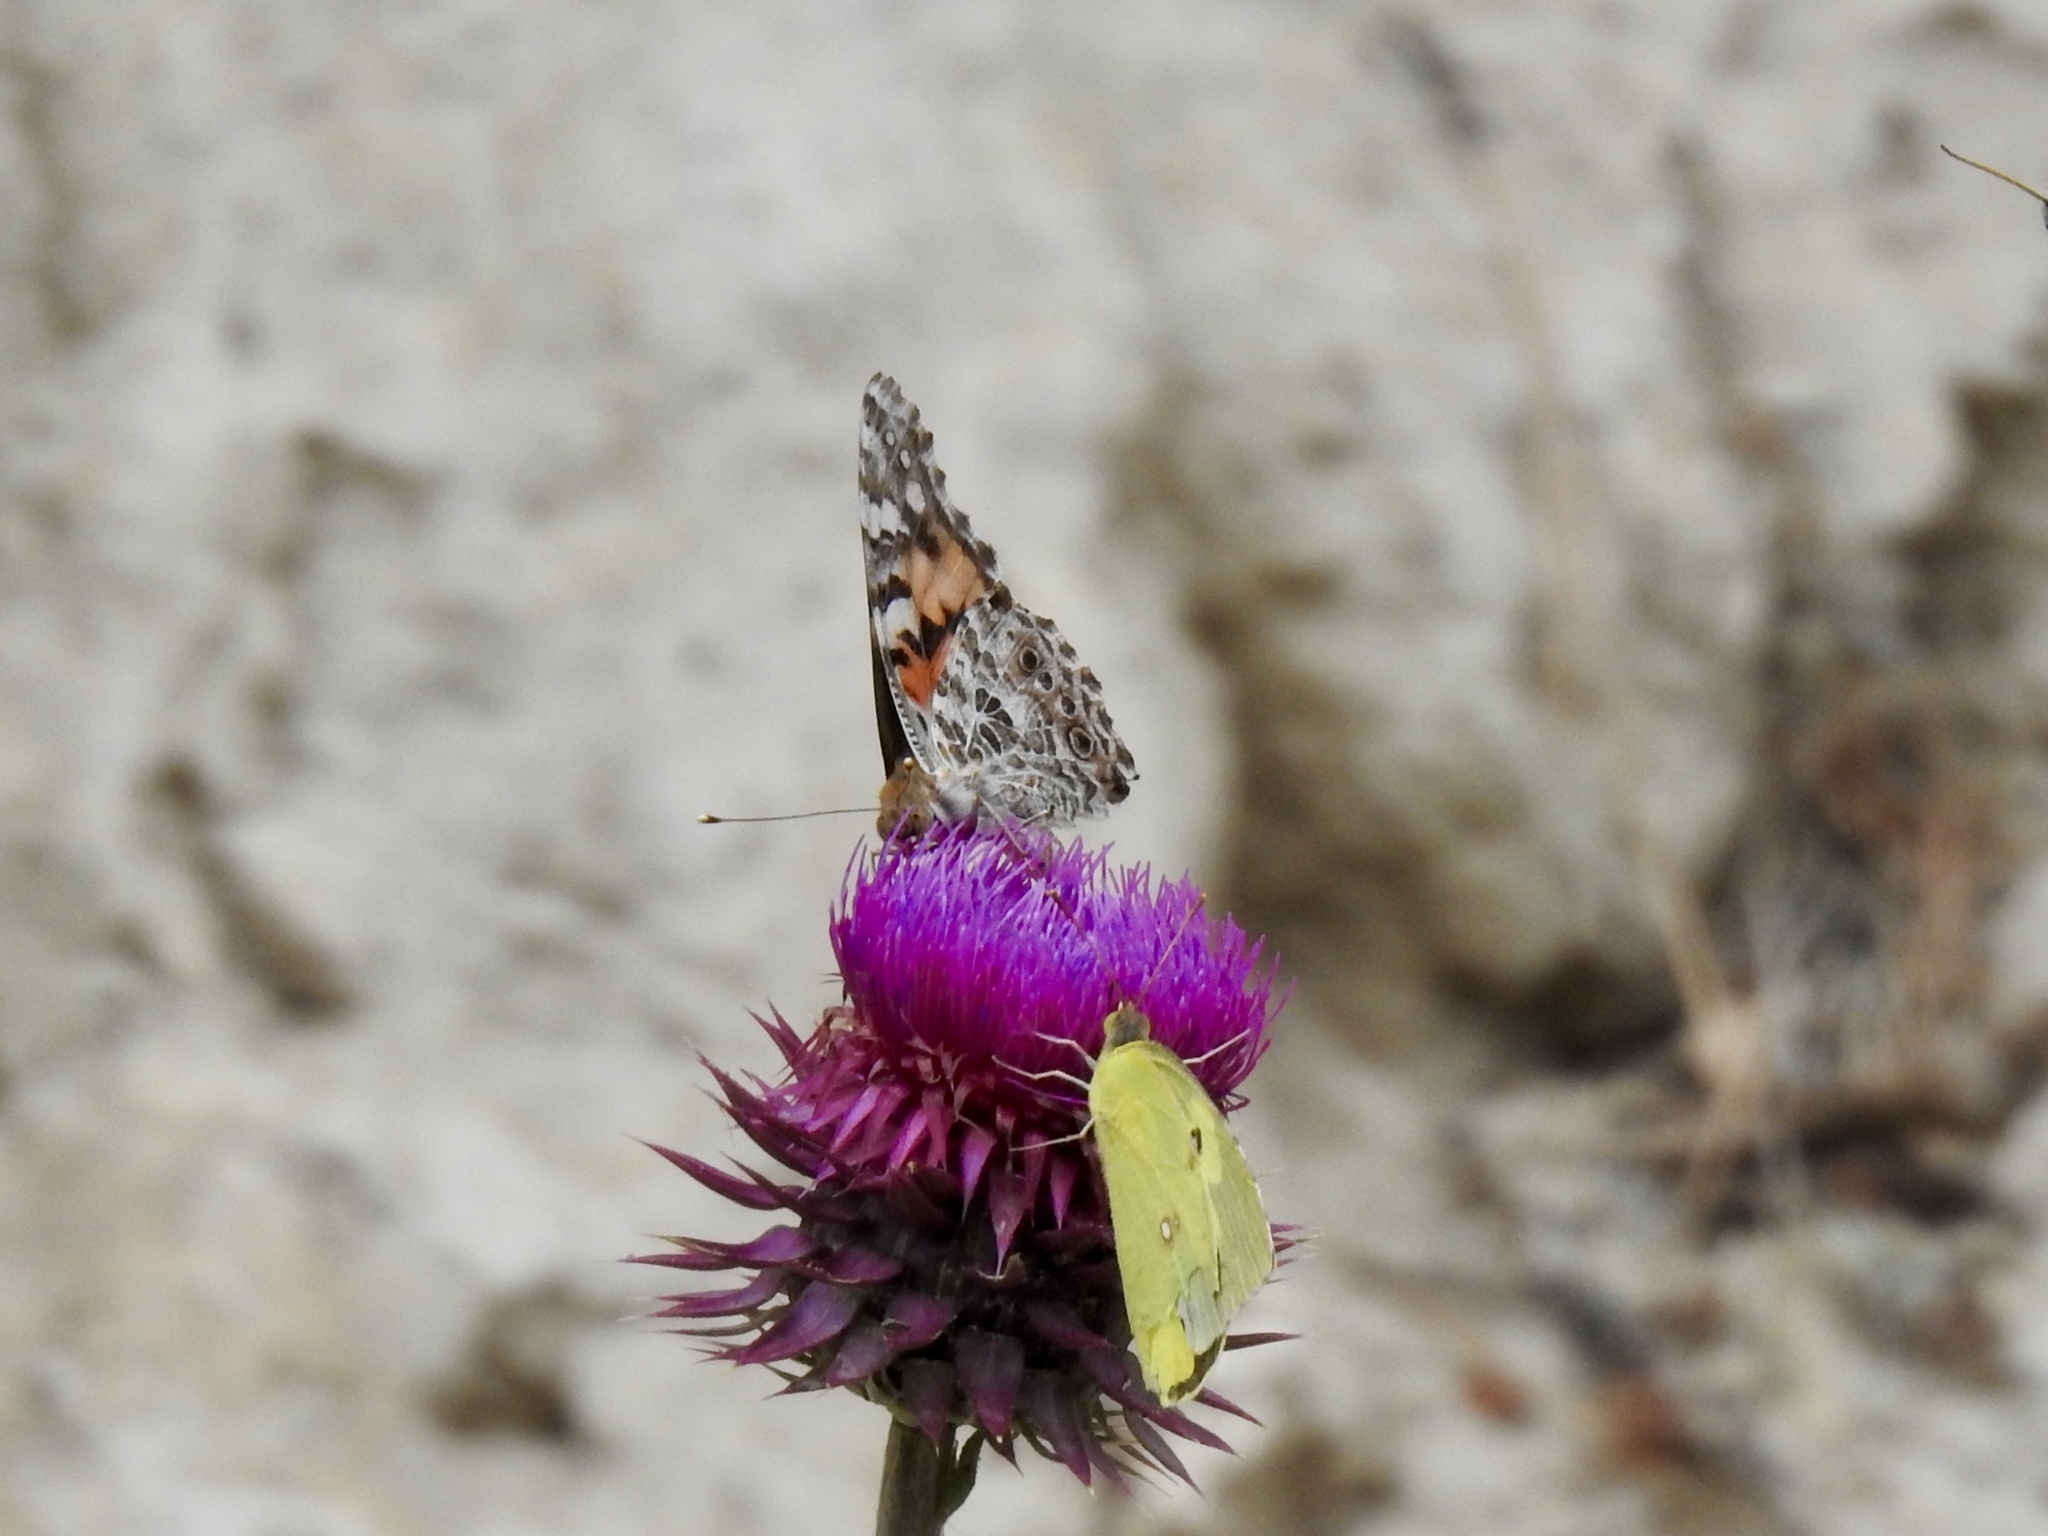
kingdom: Animalia
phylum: Arthropoda
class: Insecta
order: Lepidoptera
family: Nymphalidae
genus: Vanessa
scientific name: Vanessa cardui
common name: Painted lady
